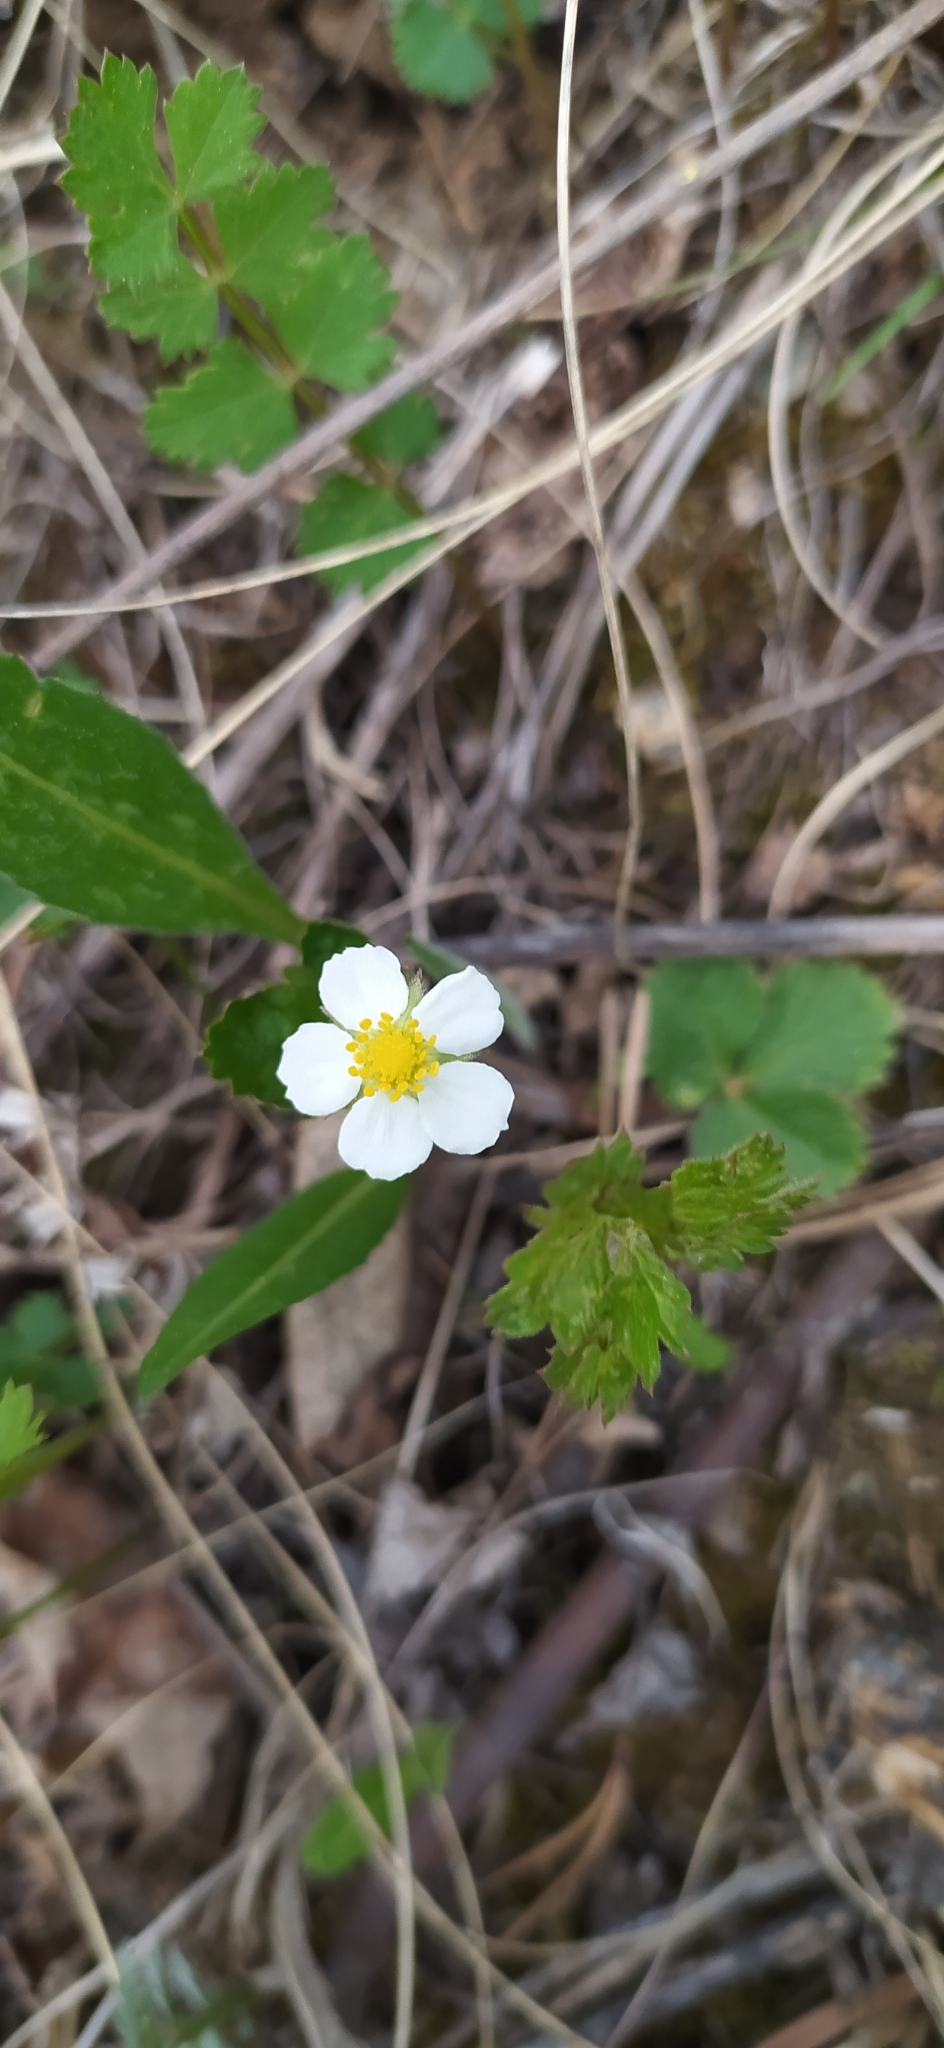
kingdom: Plantae
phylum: Tracheophyta
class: Magnoliopsida
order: Rosales
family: Rosaceae
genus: Fragaria
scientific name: Fragaria vesca
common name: Wild strawberry
